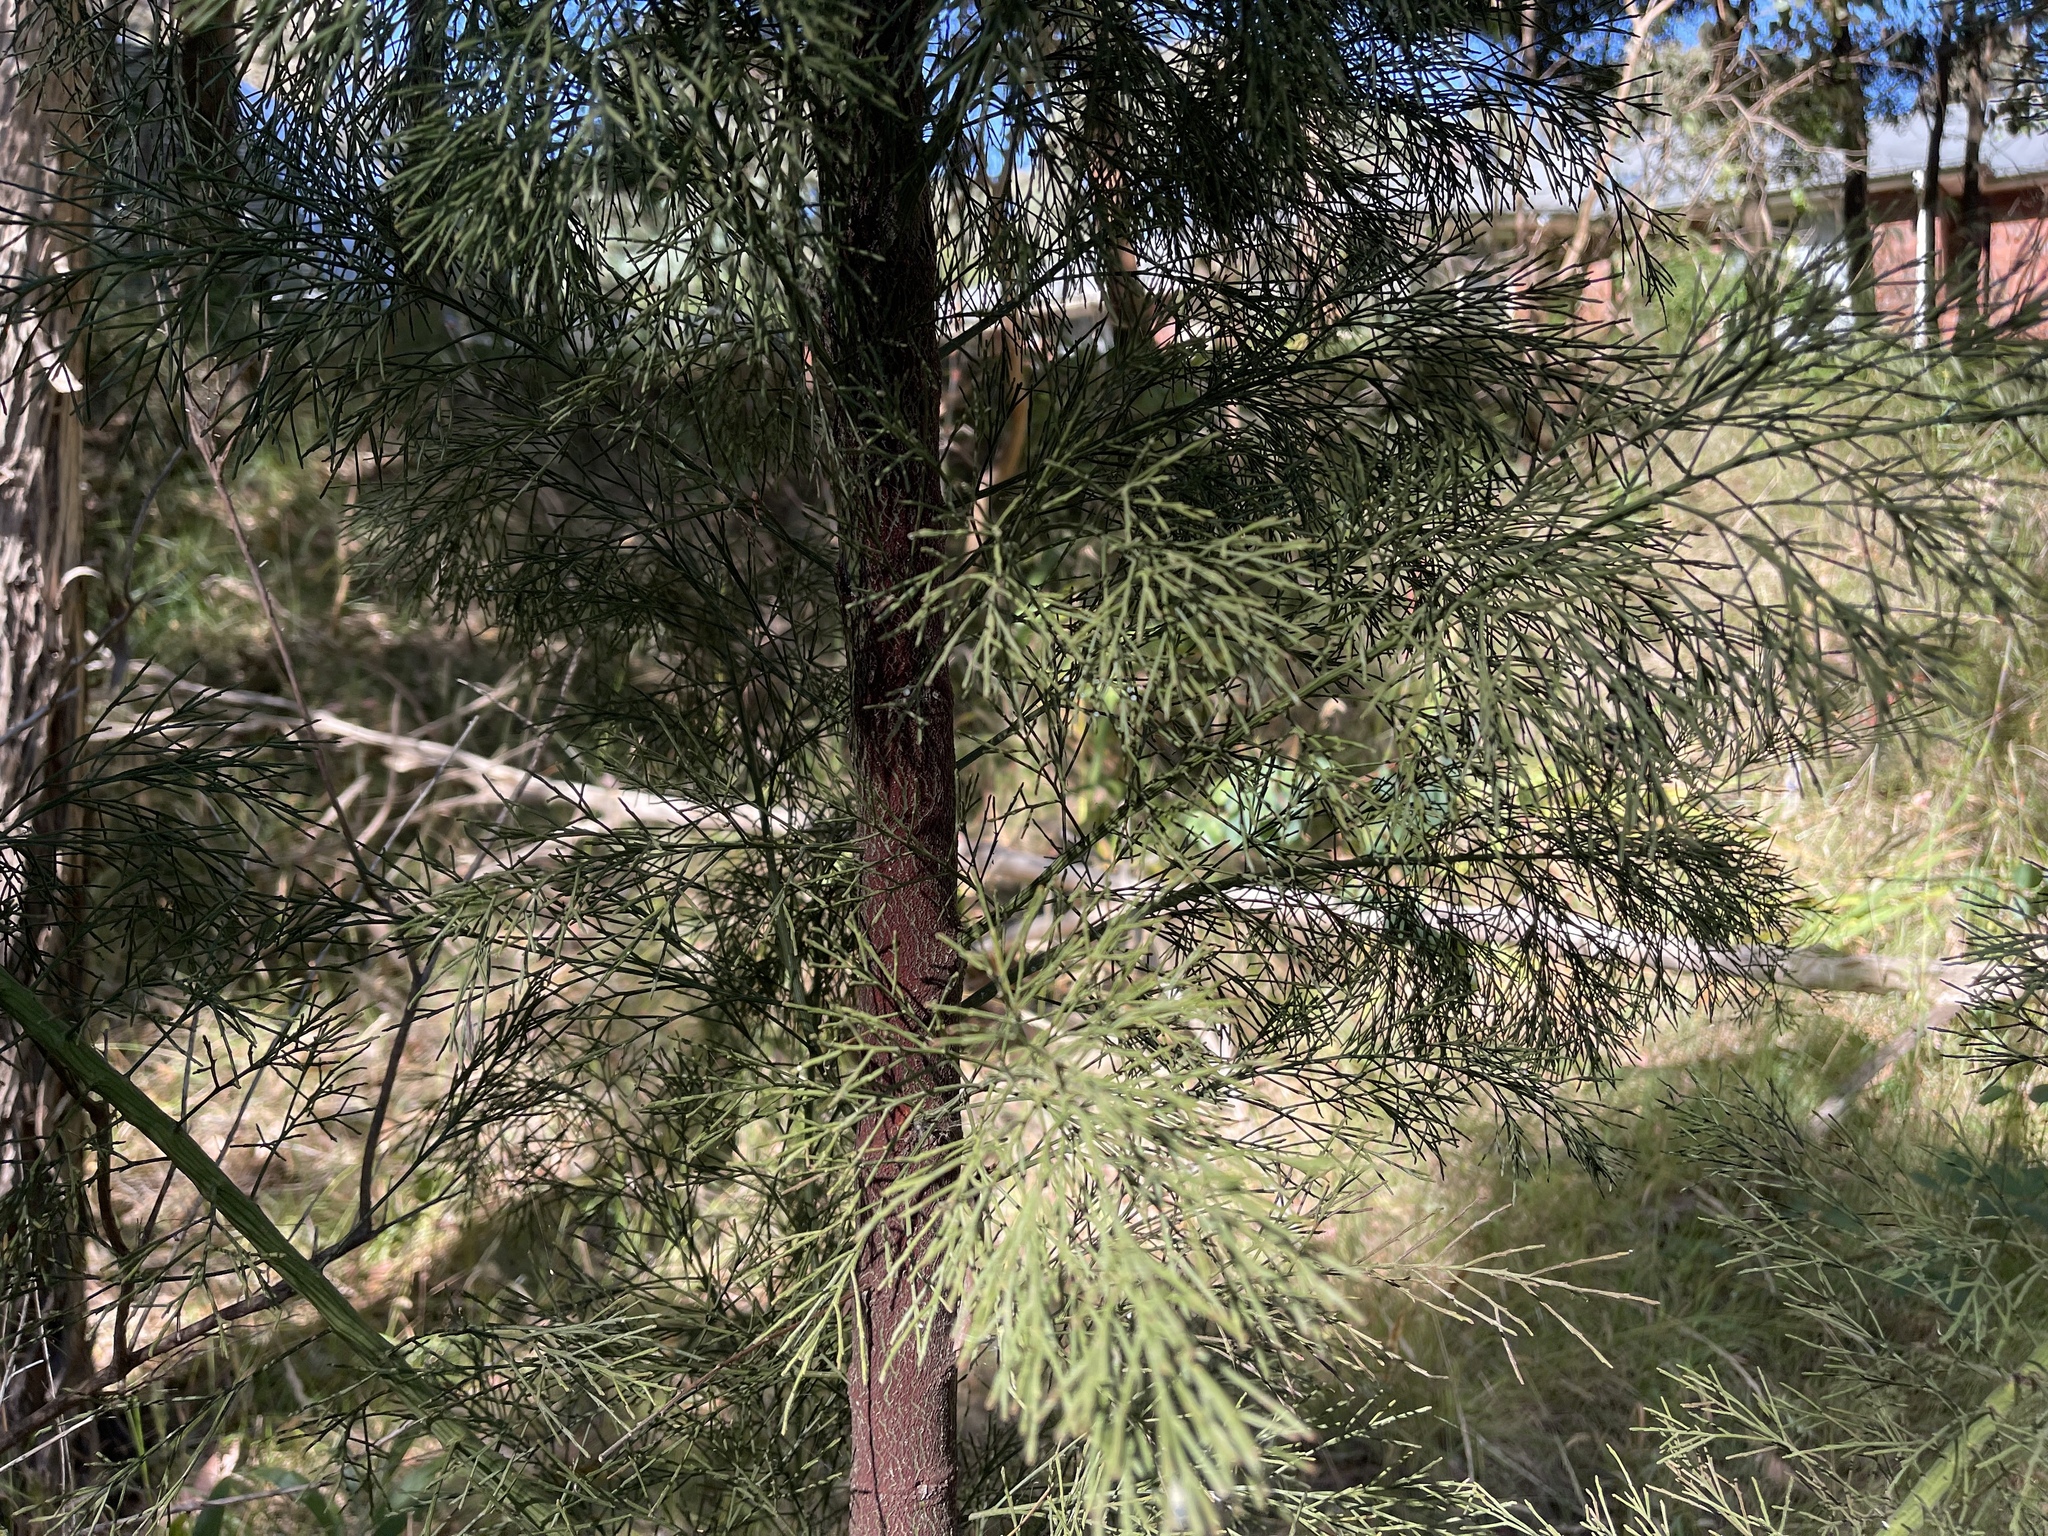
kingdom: Plantae
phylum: Tracheophyta
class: Magnoliopsida
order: Santalales
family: Santalaceae
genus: Exocarpos
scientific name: Exocarpos cupressiformis
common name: Cherry ballart
